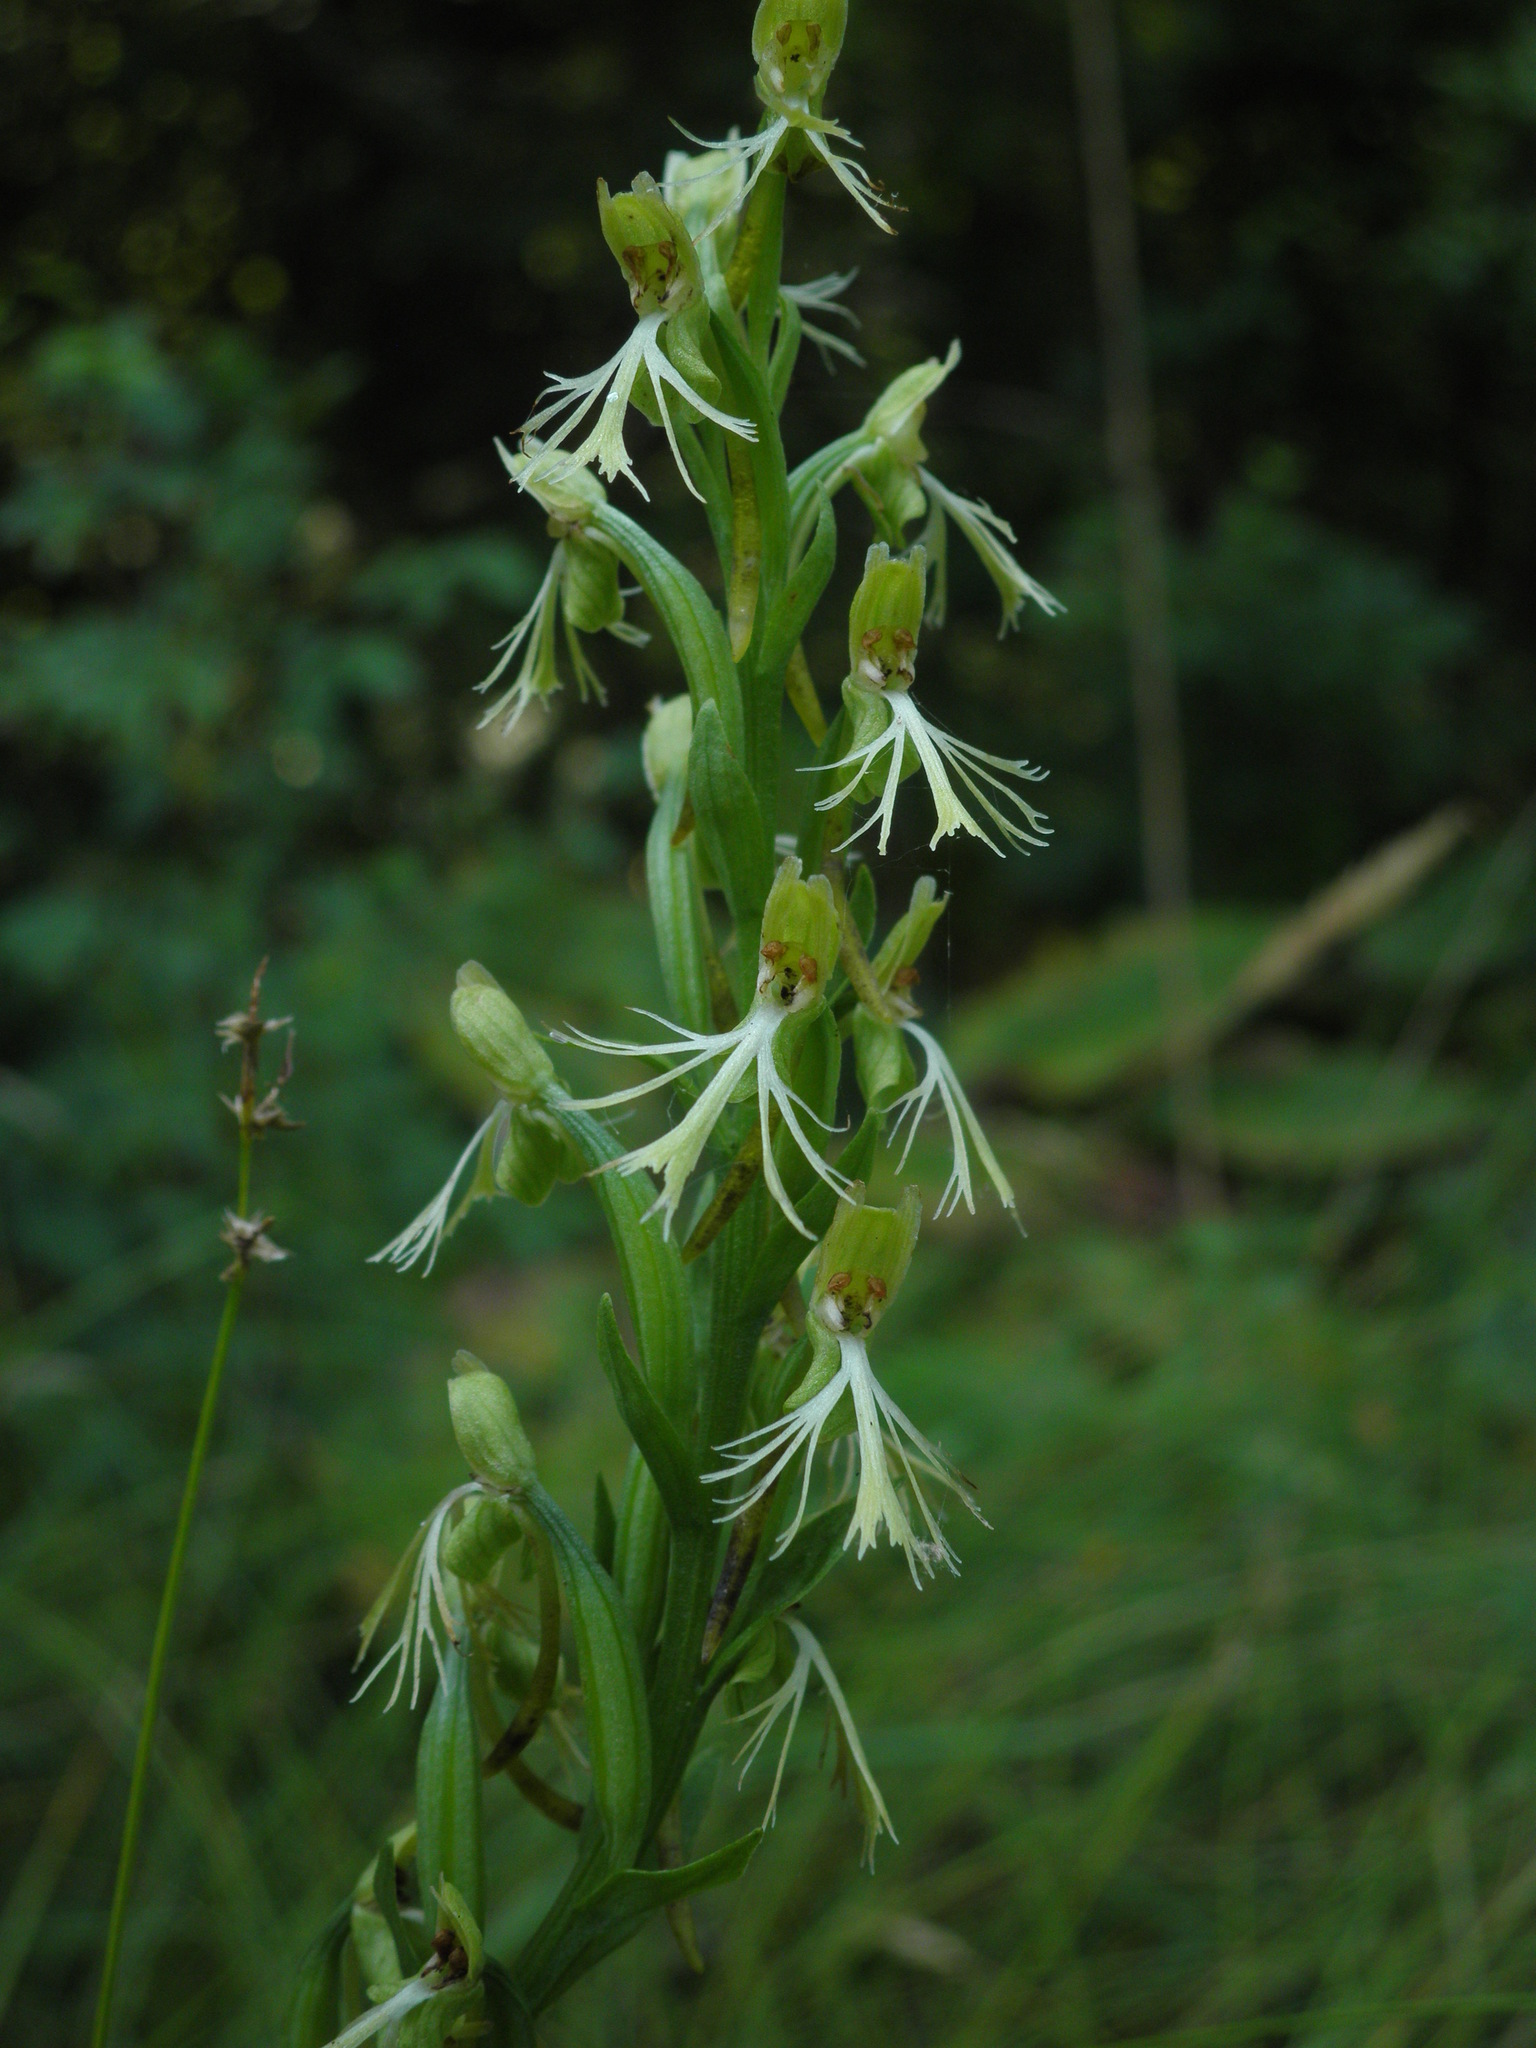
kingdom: Plantae
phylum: Tracheophyta
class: Liliopsida
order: Asparagales
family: Orchidaceae
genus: Platanthera
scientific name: Platanthera lacera
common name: Green fringed orchid
